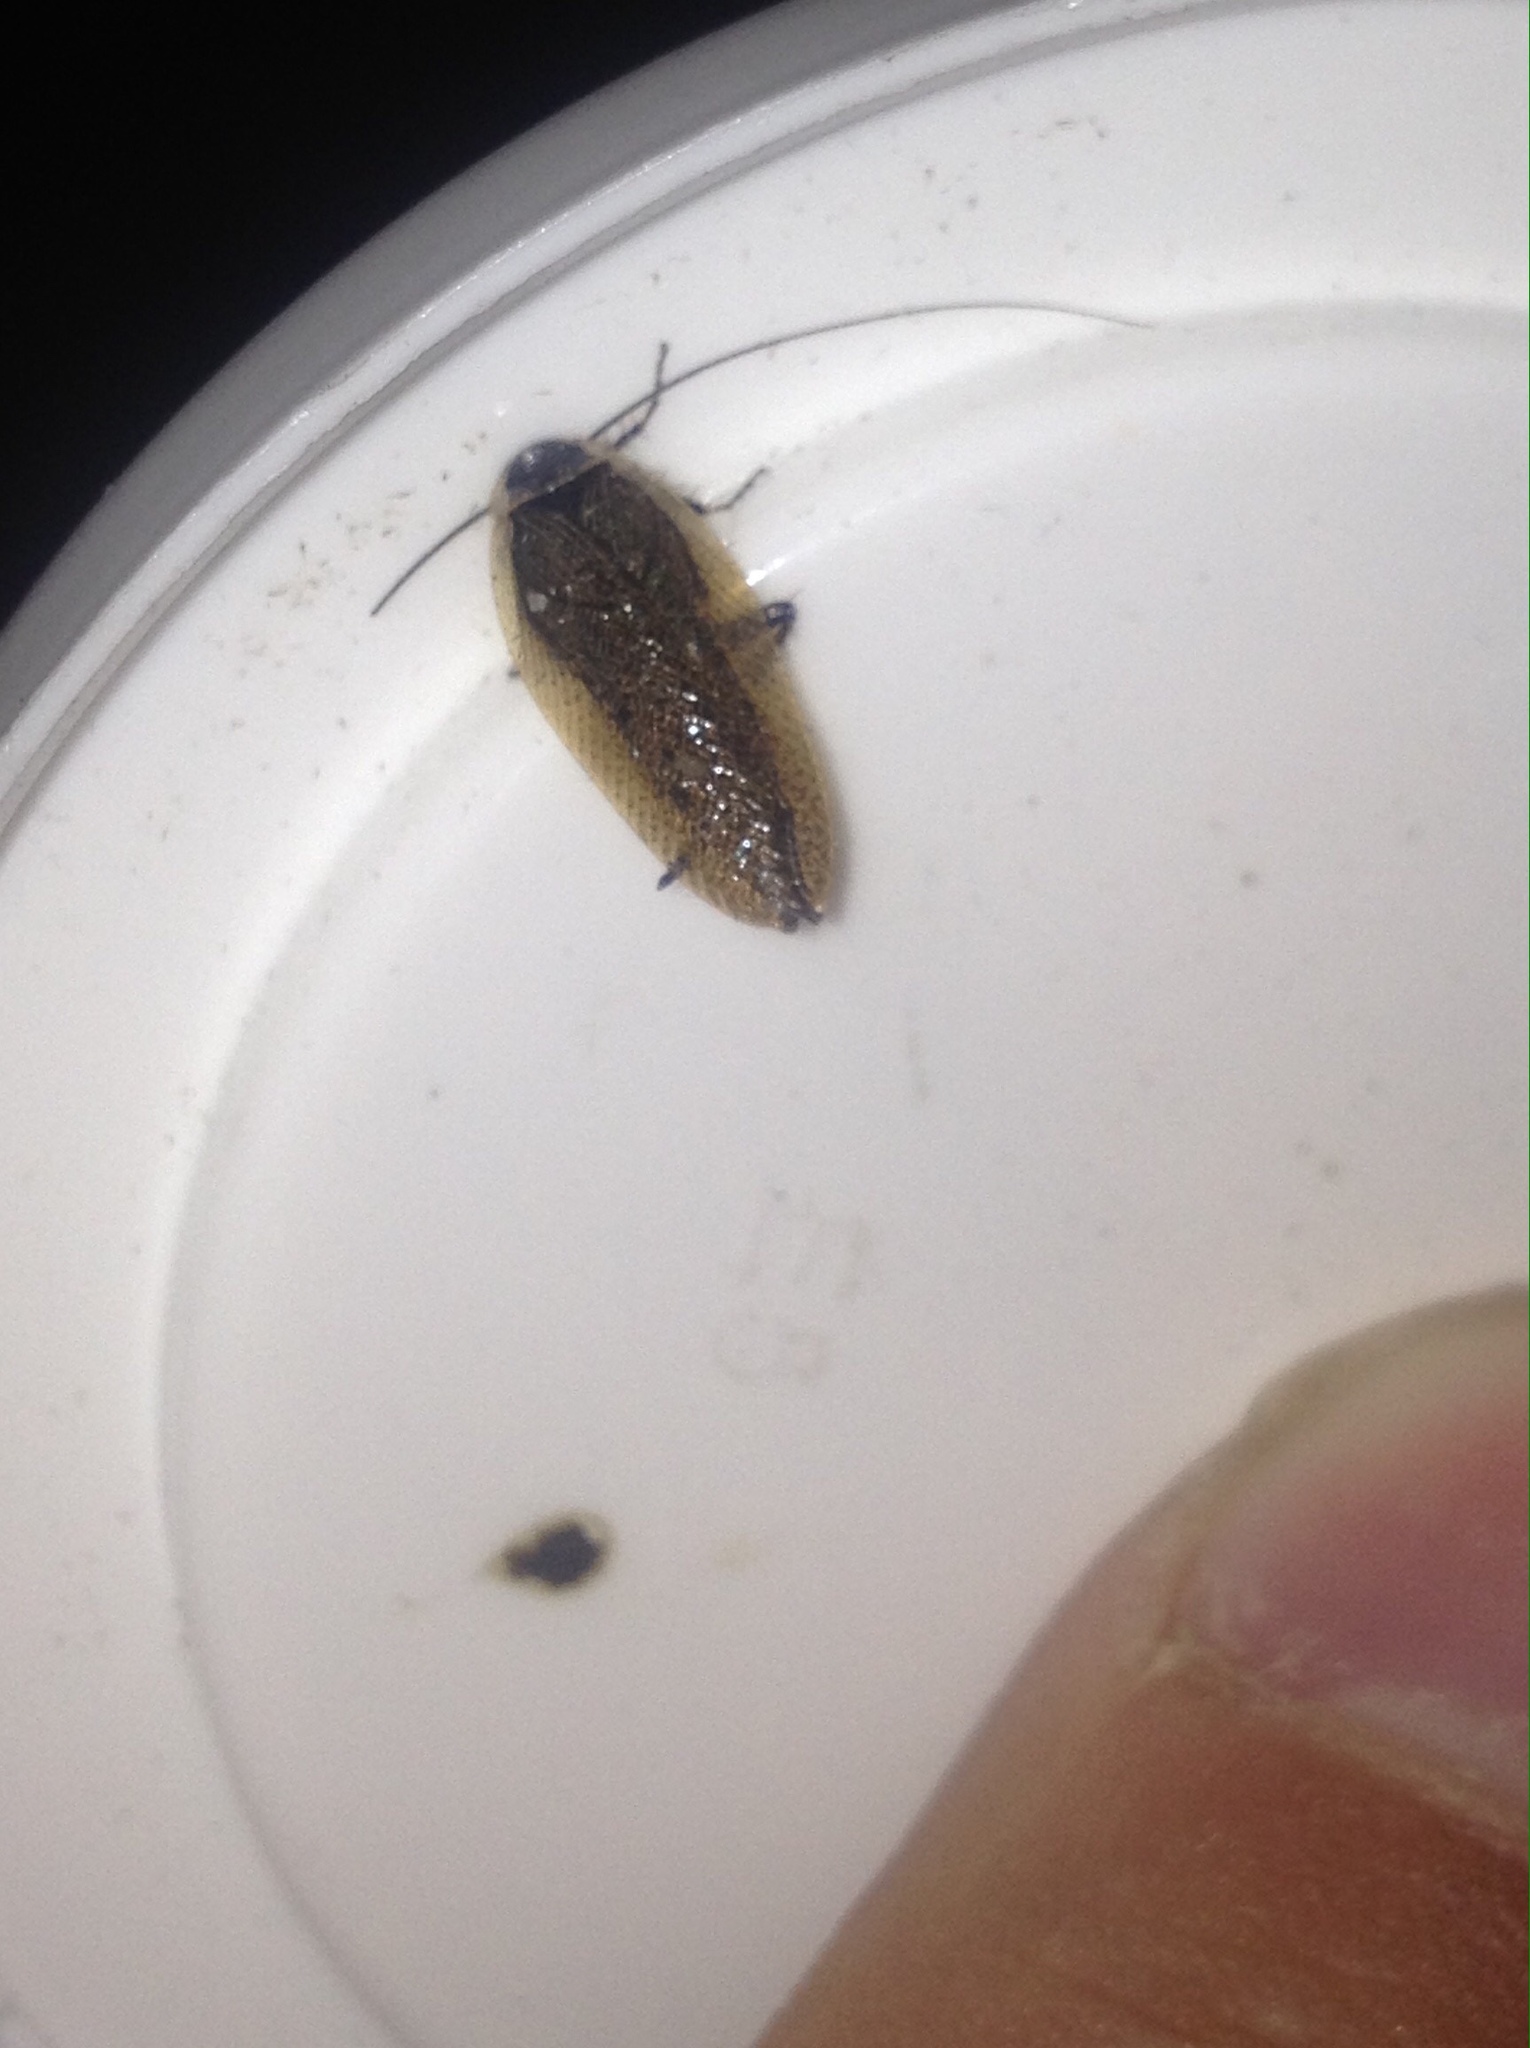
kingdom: Animalia
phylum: Arthropoda
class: Insecta
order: Blattodea
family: Ectobiidae
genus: Ectobius
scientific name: Ectobius lapponicus
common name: Dusky cockroach
